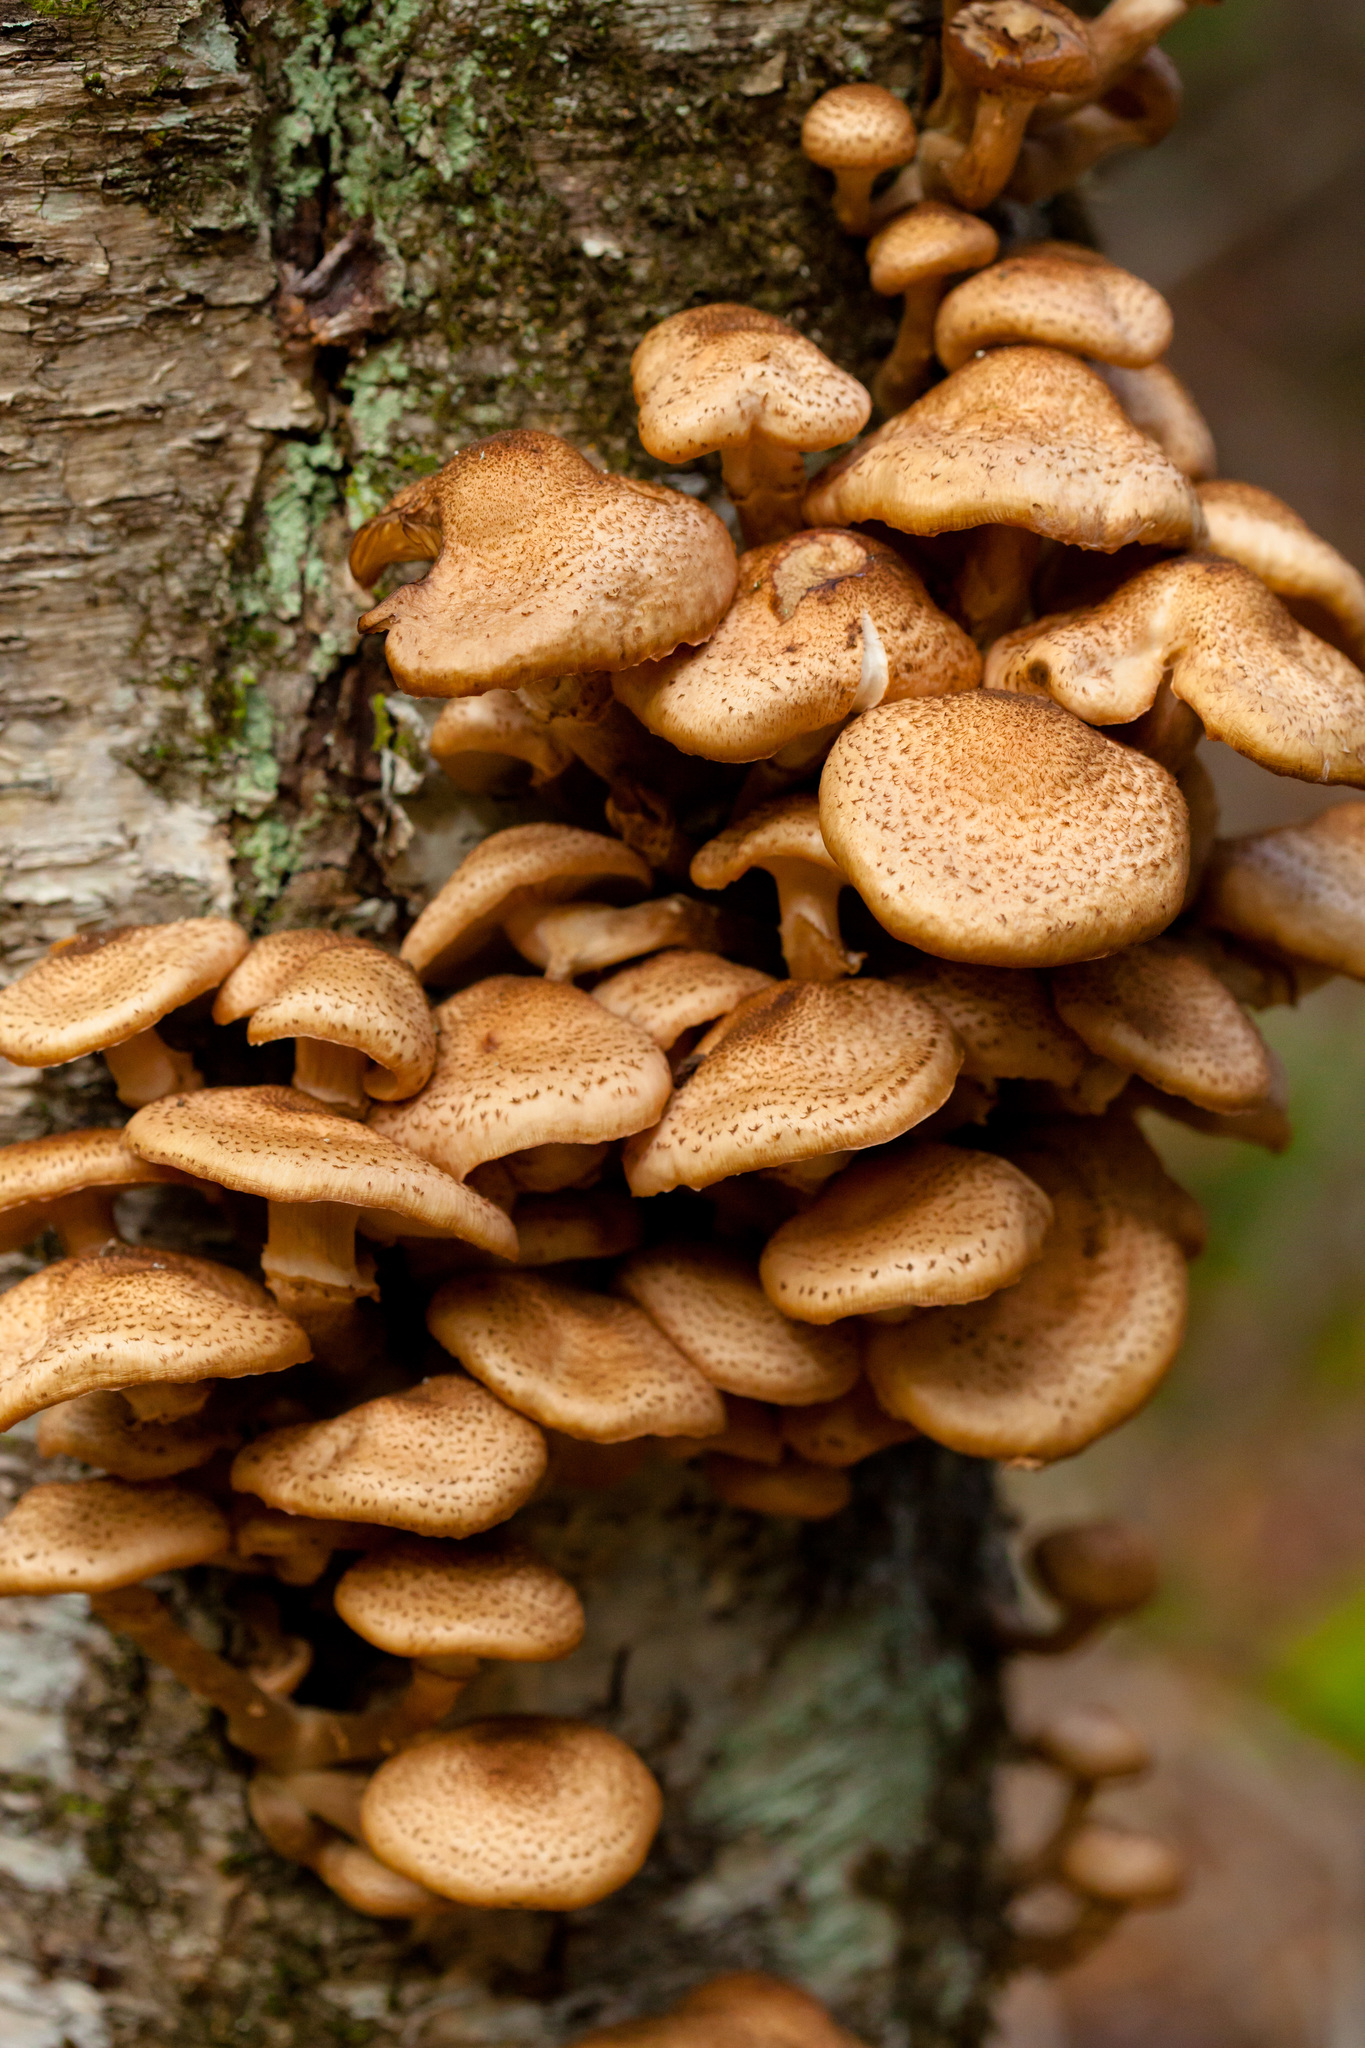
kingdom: Fungi
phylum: Basidiomycota
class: Agaricomycetes
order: Agaricales
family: Physalacriaceae
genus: Armillaria
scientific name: Armillaria ostoyae
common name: Dark honey fungus
